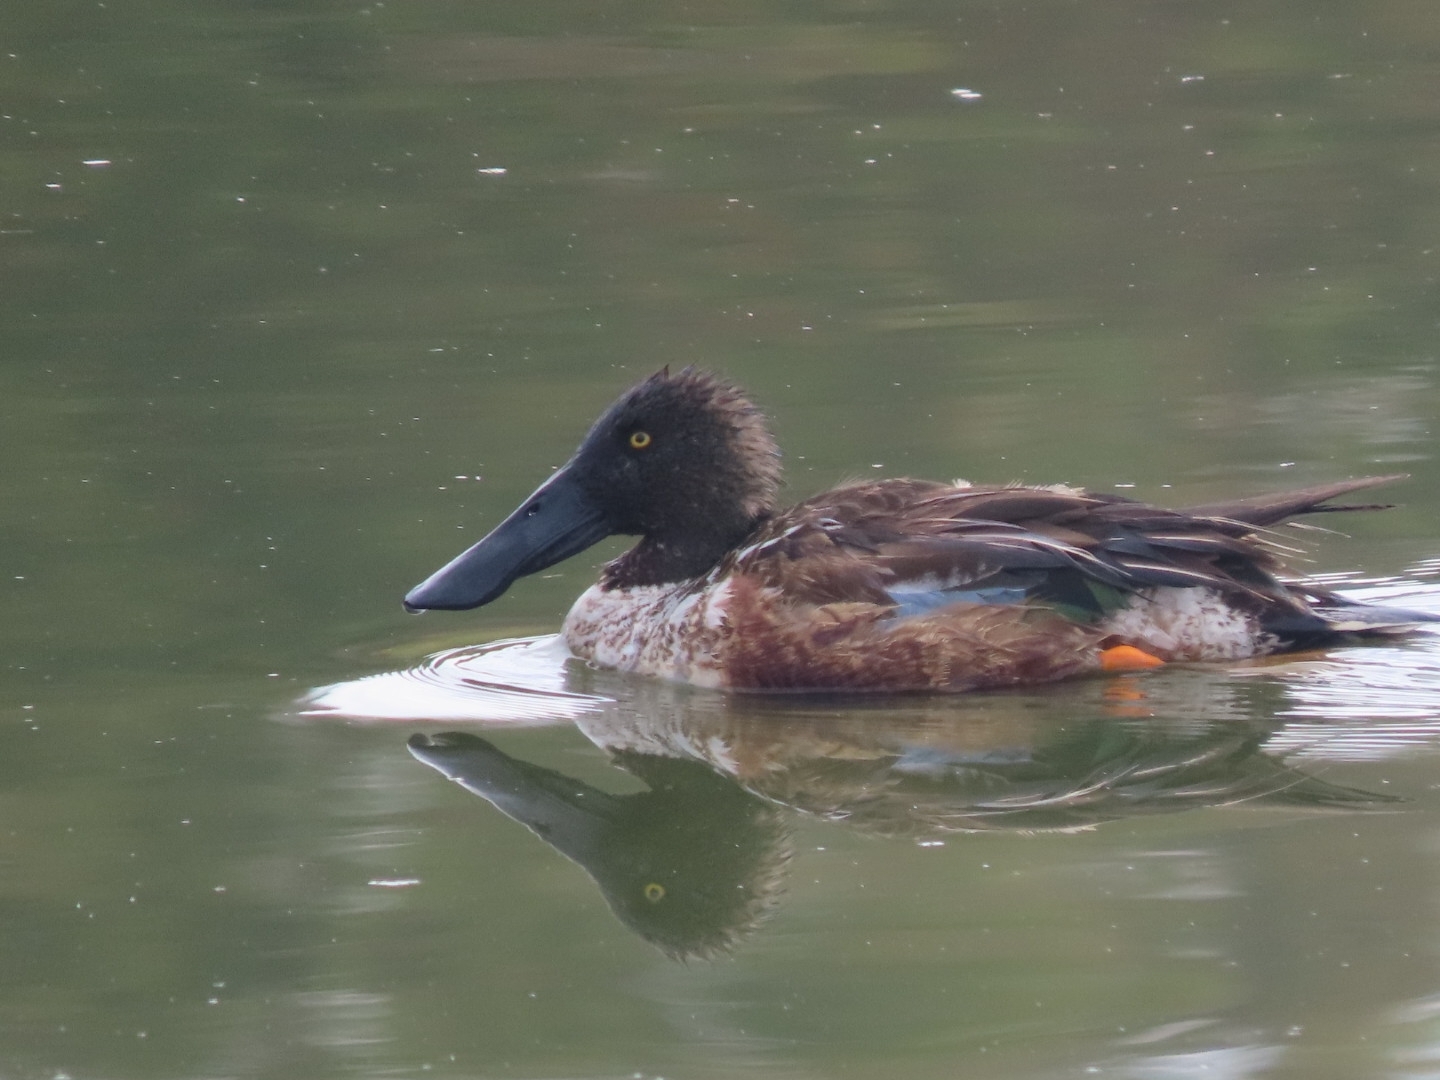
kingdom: Animalia
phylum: Chordata
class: Aves
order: Anseriformes
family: Anatidae
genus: Spatula
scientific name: Spatula clypeata
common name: Northern shoveler
